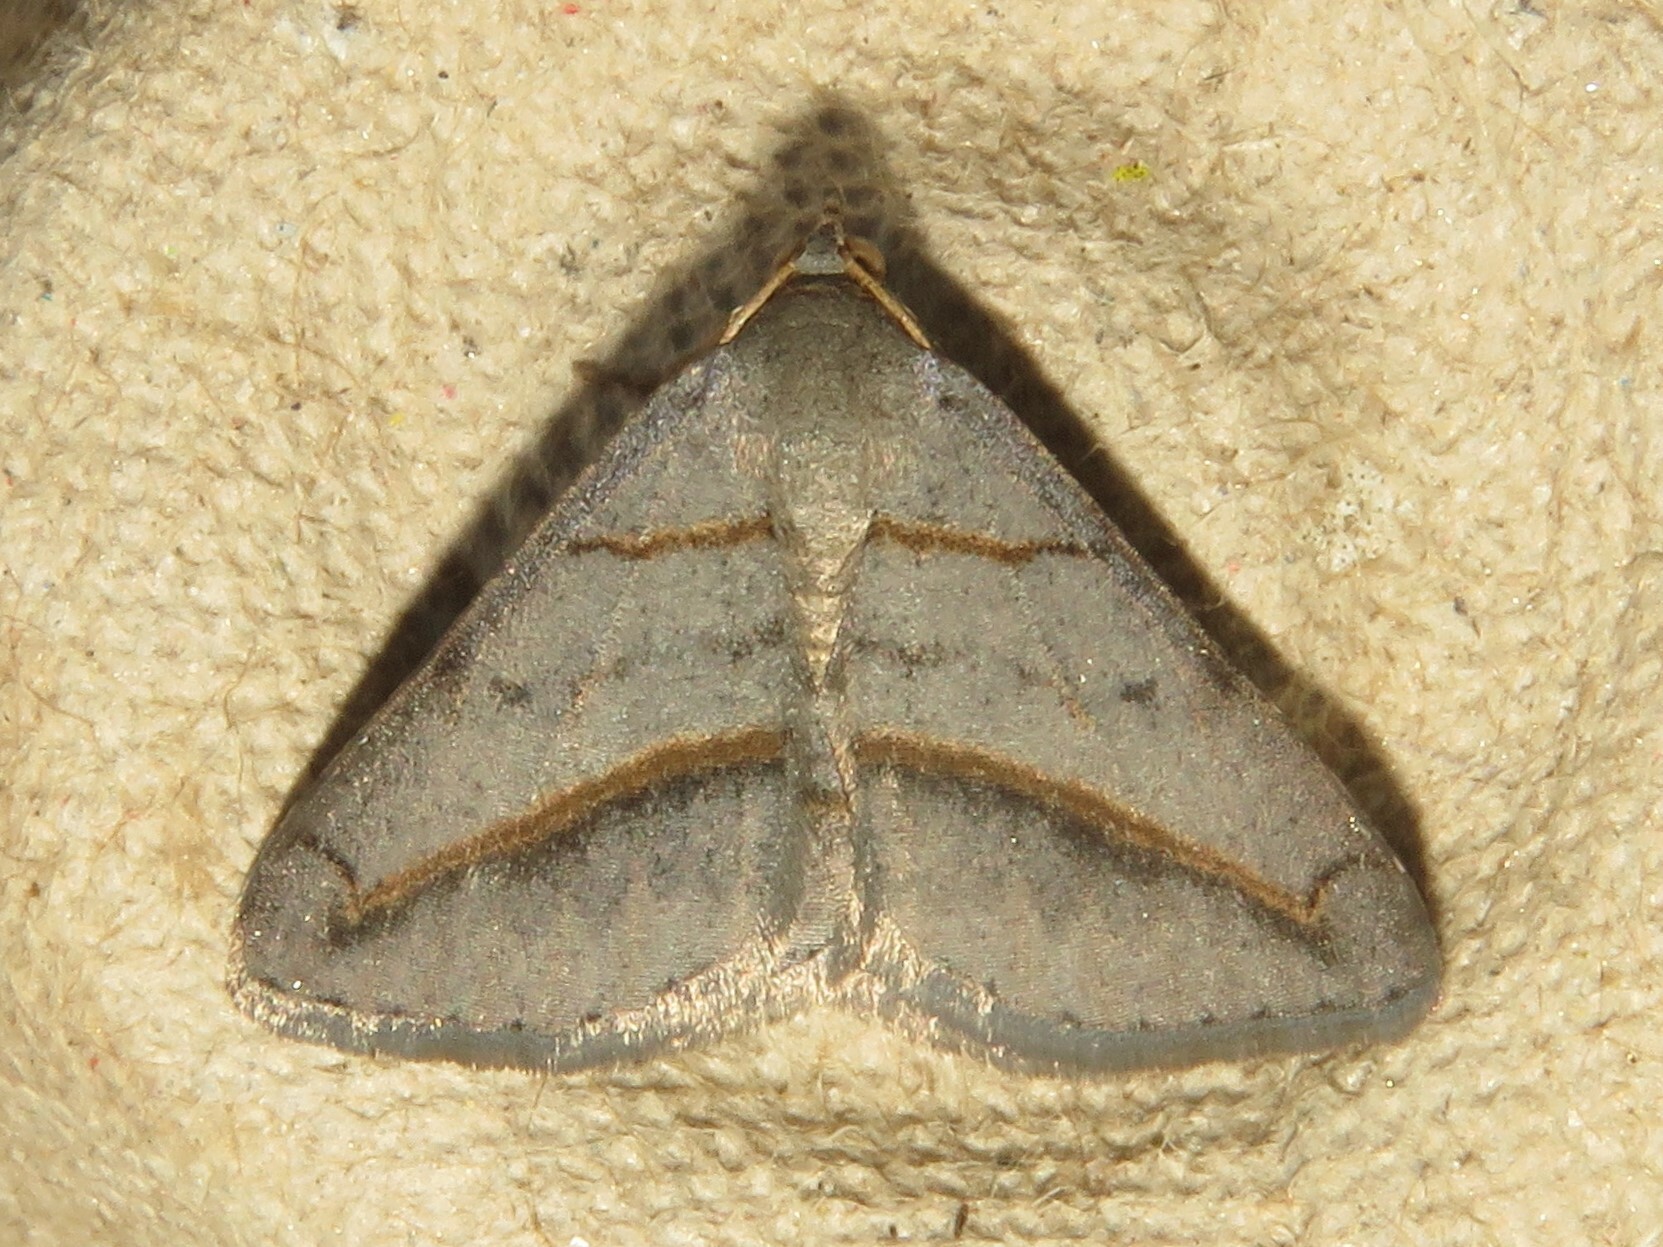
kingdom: Animalia
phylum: Arthropoda
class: Insecta
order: Lepidoptera
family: Geometridae
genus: Digrammia
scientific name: Digrammia mellistrigata
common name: Yellow-lined angle
